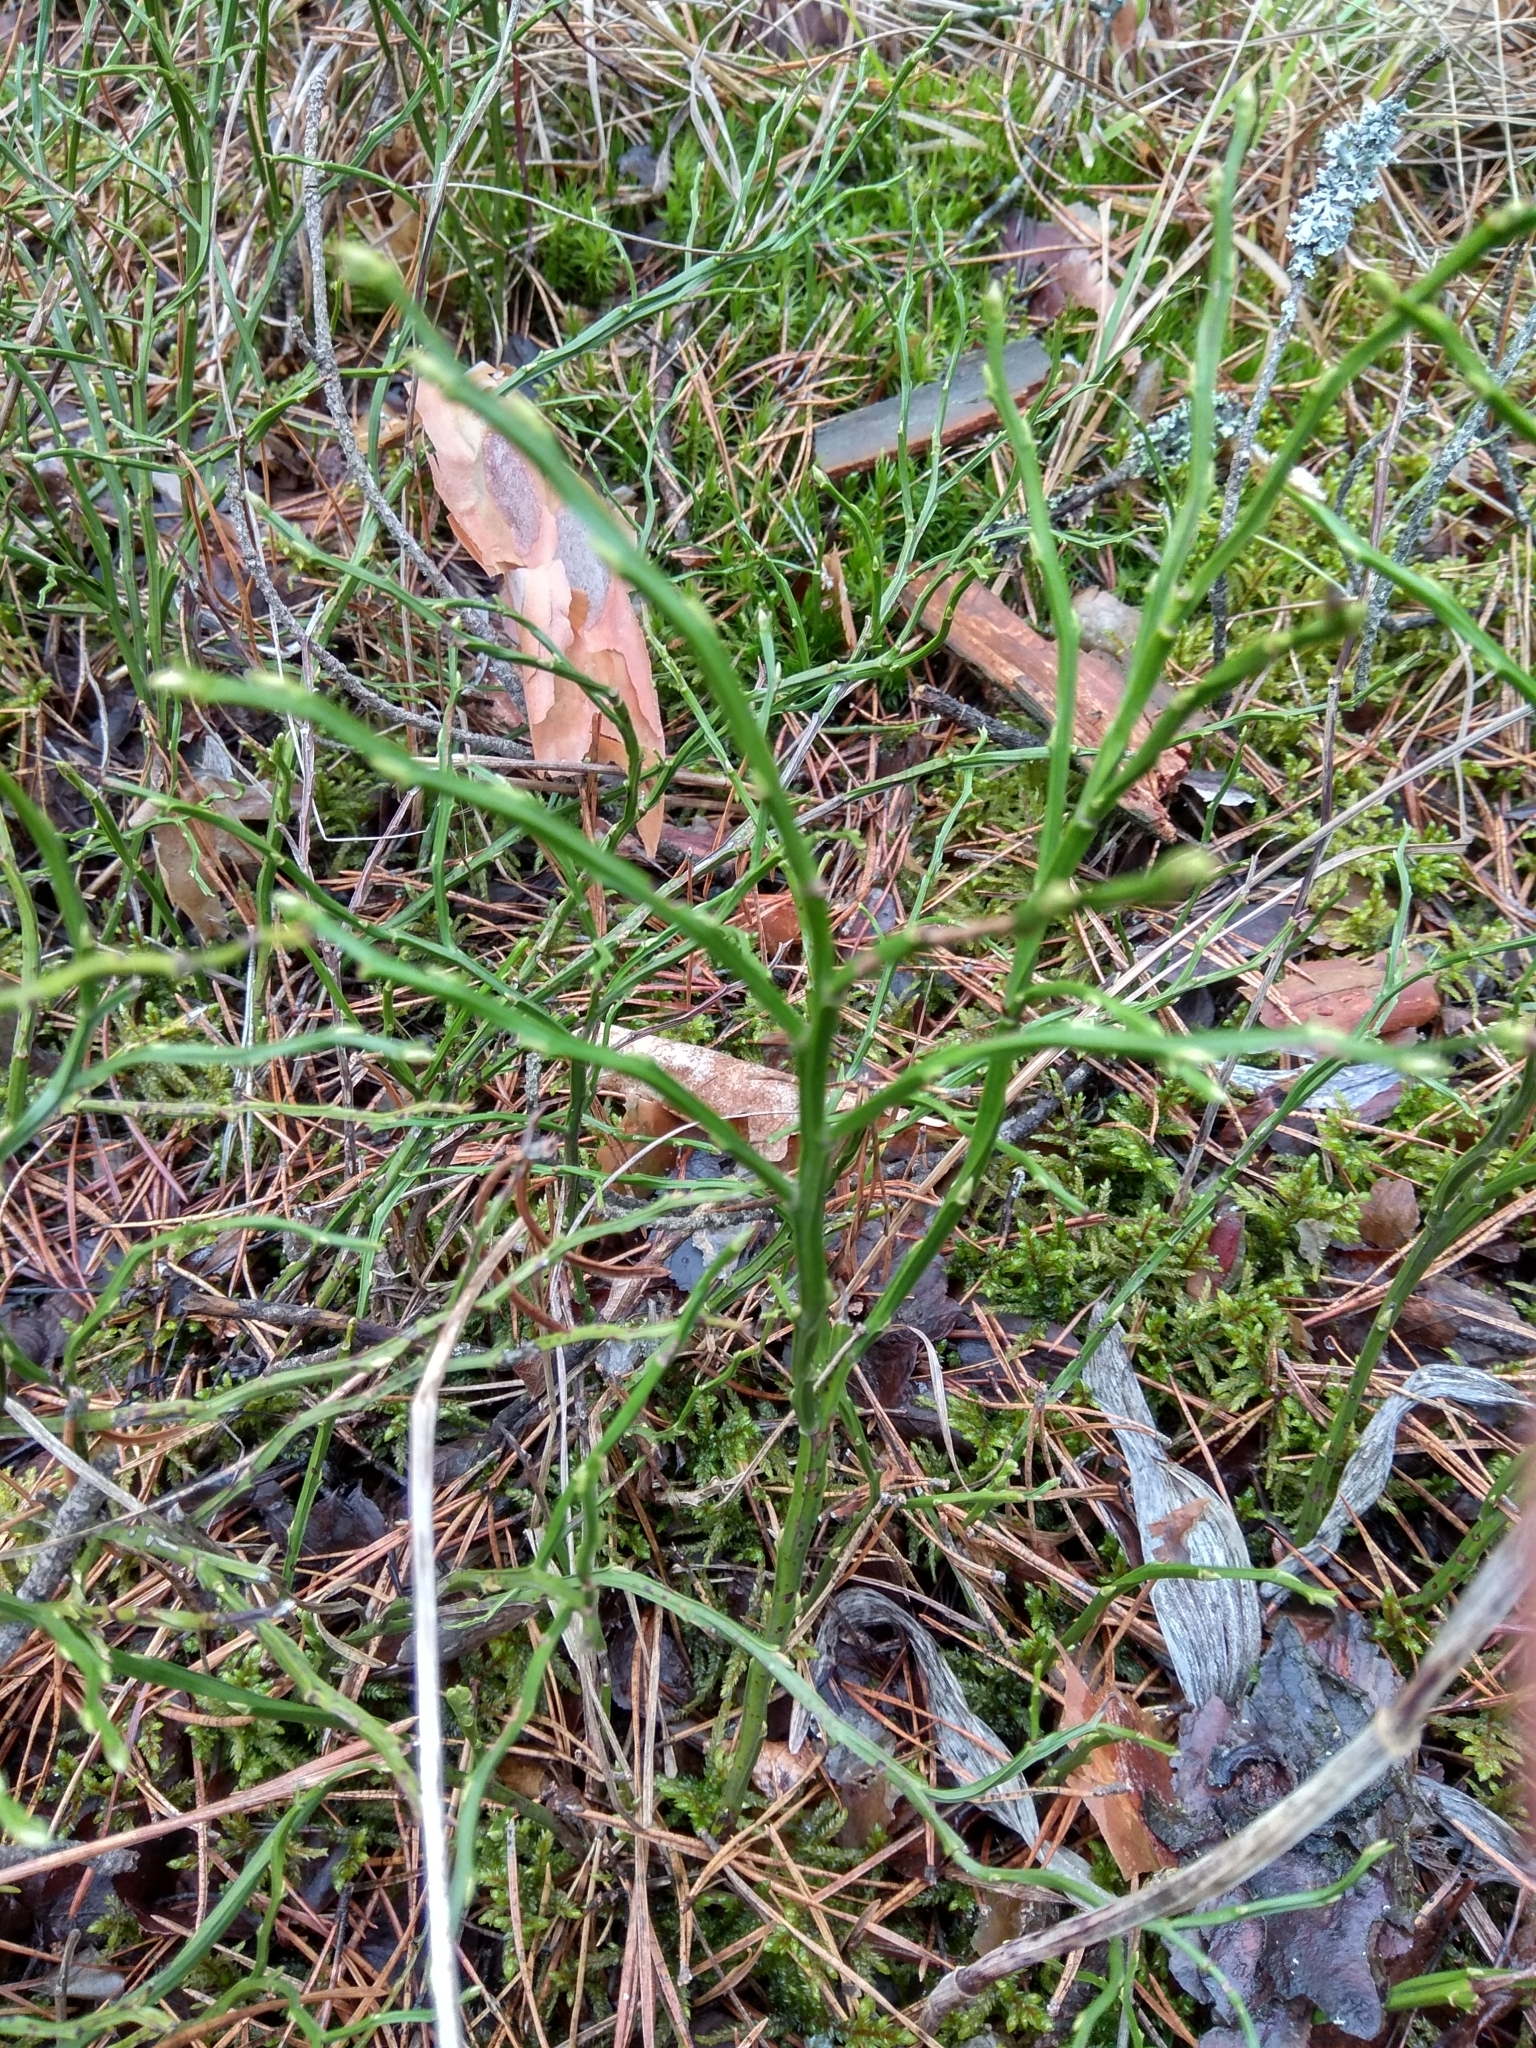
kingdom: Plantae
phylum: Tracheophyta
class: Magnoliopsida
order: Ericales
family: Ericaceae
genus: Vaccinium
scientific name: Vaccinium myrtillus
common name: Bilberry
